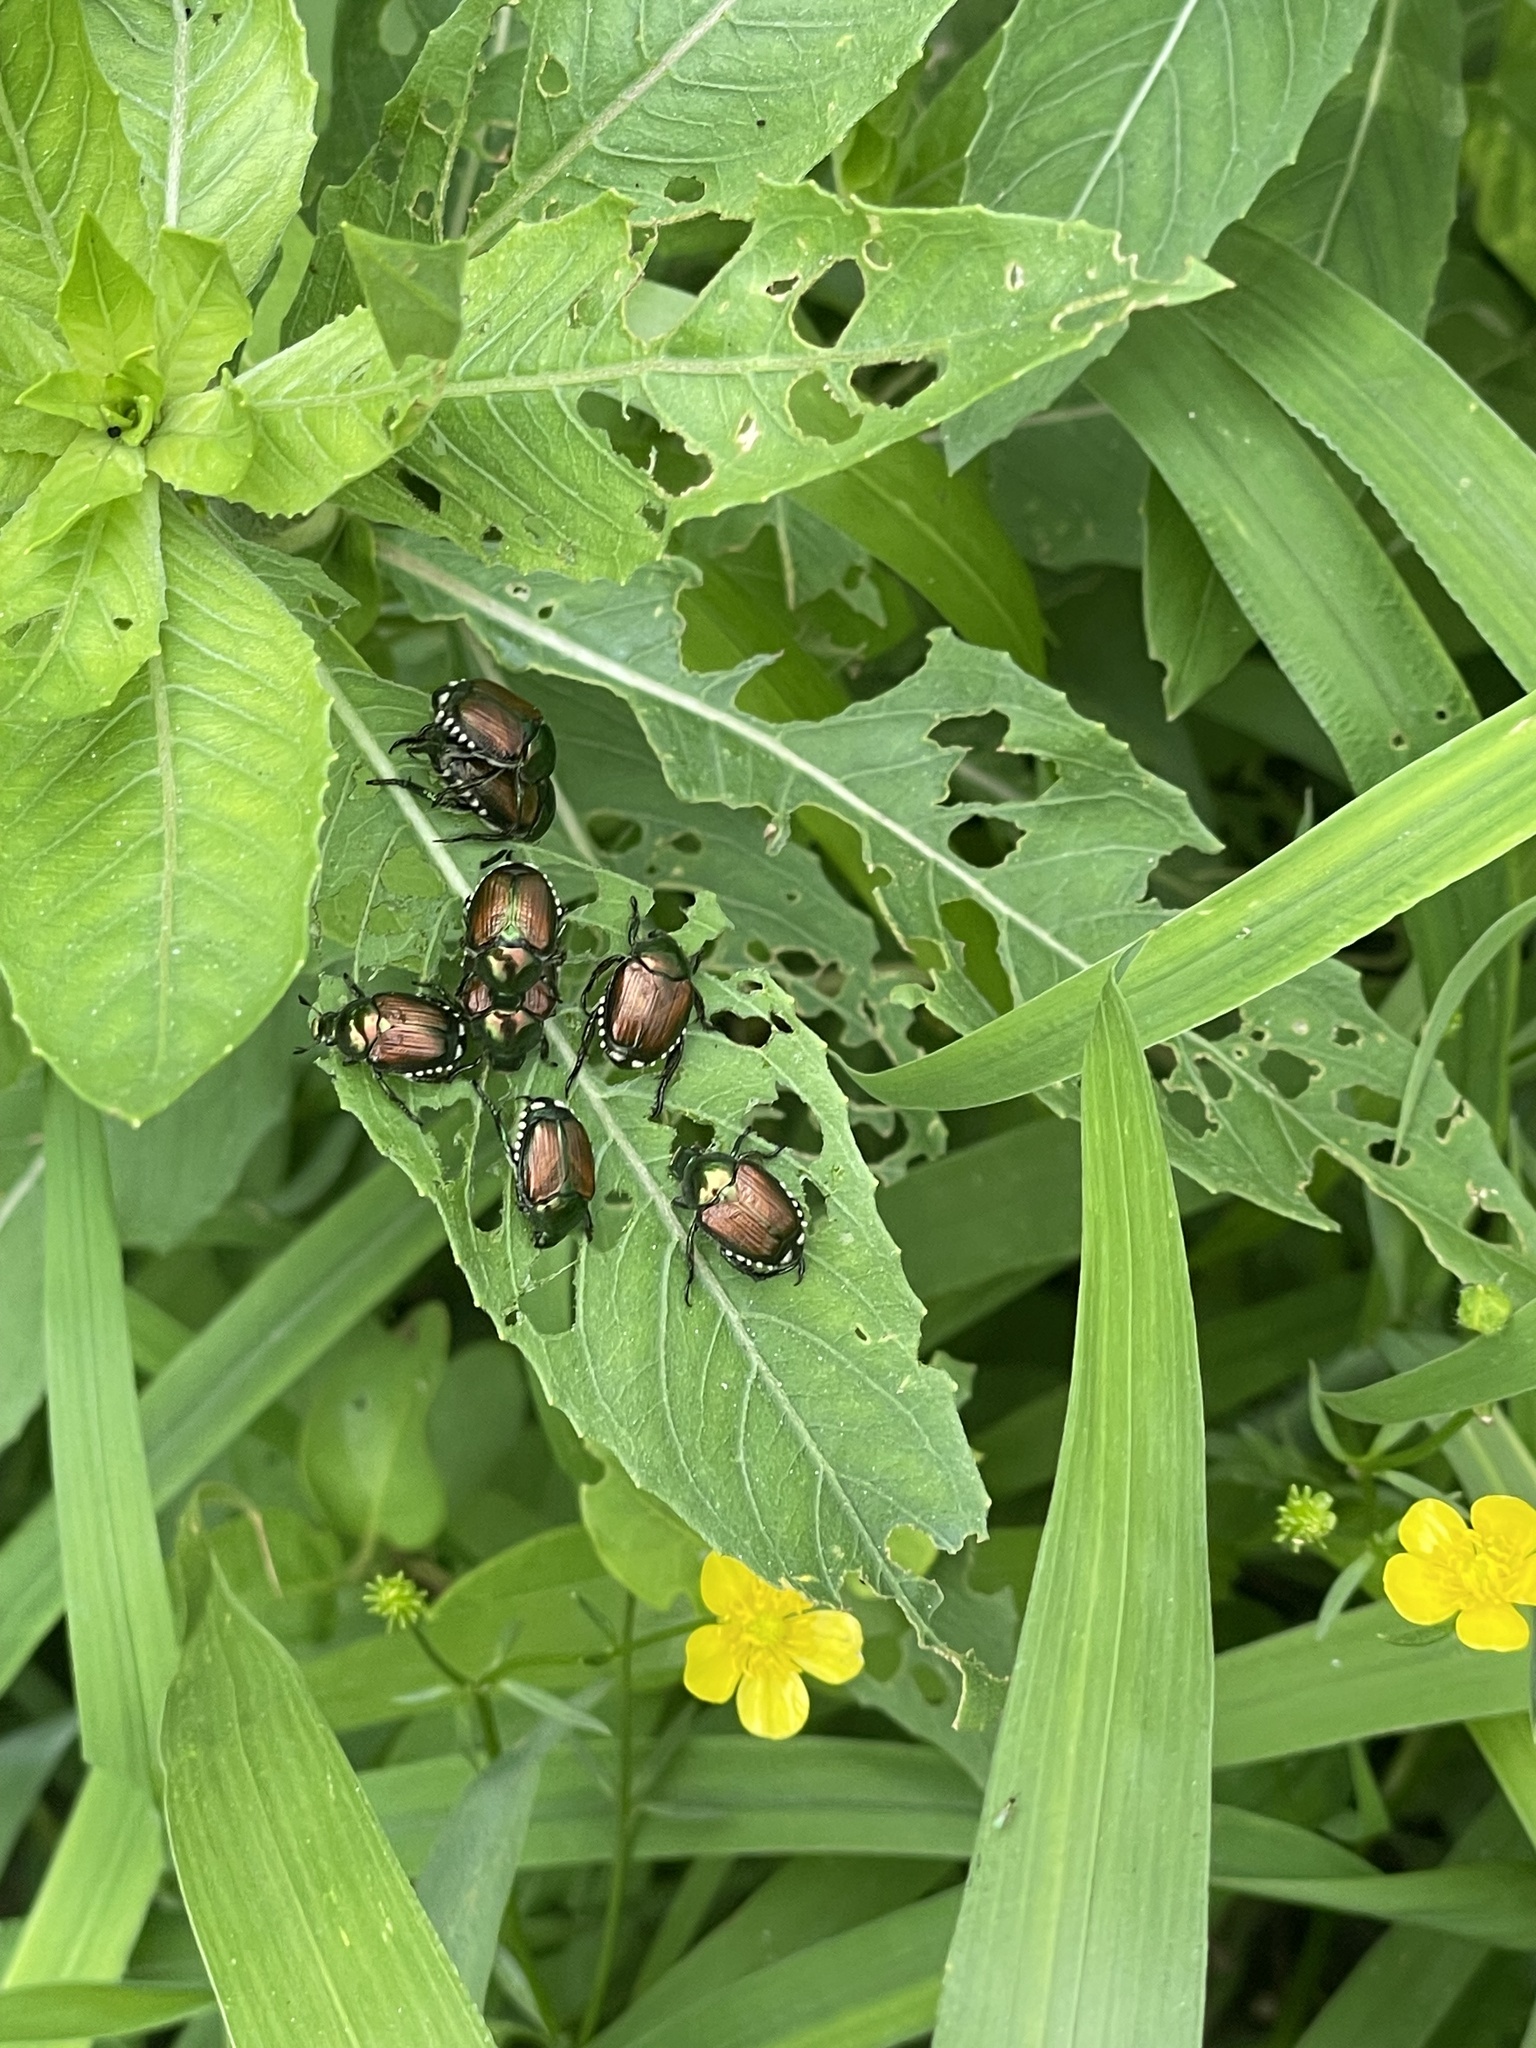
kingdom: Animalia
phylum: Arthropoda
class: Insecta
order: Coleoptera
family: Scarabaeidae
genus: Popillia
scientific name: Popillia japonica
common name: Japanese beetle
